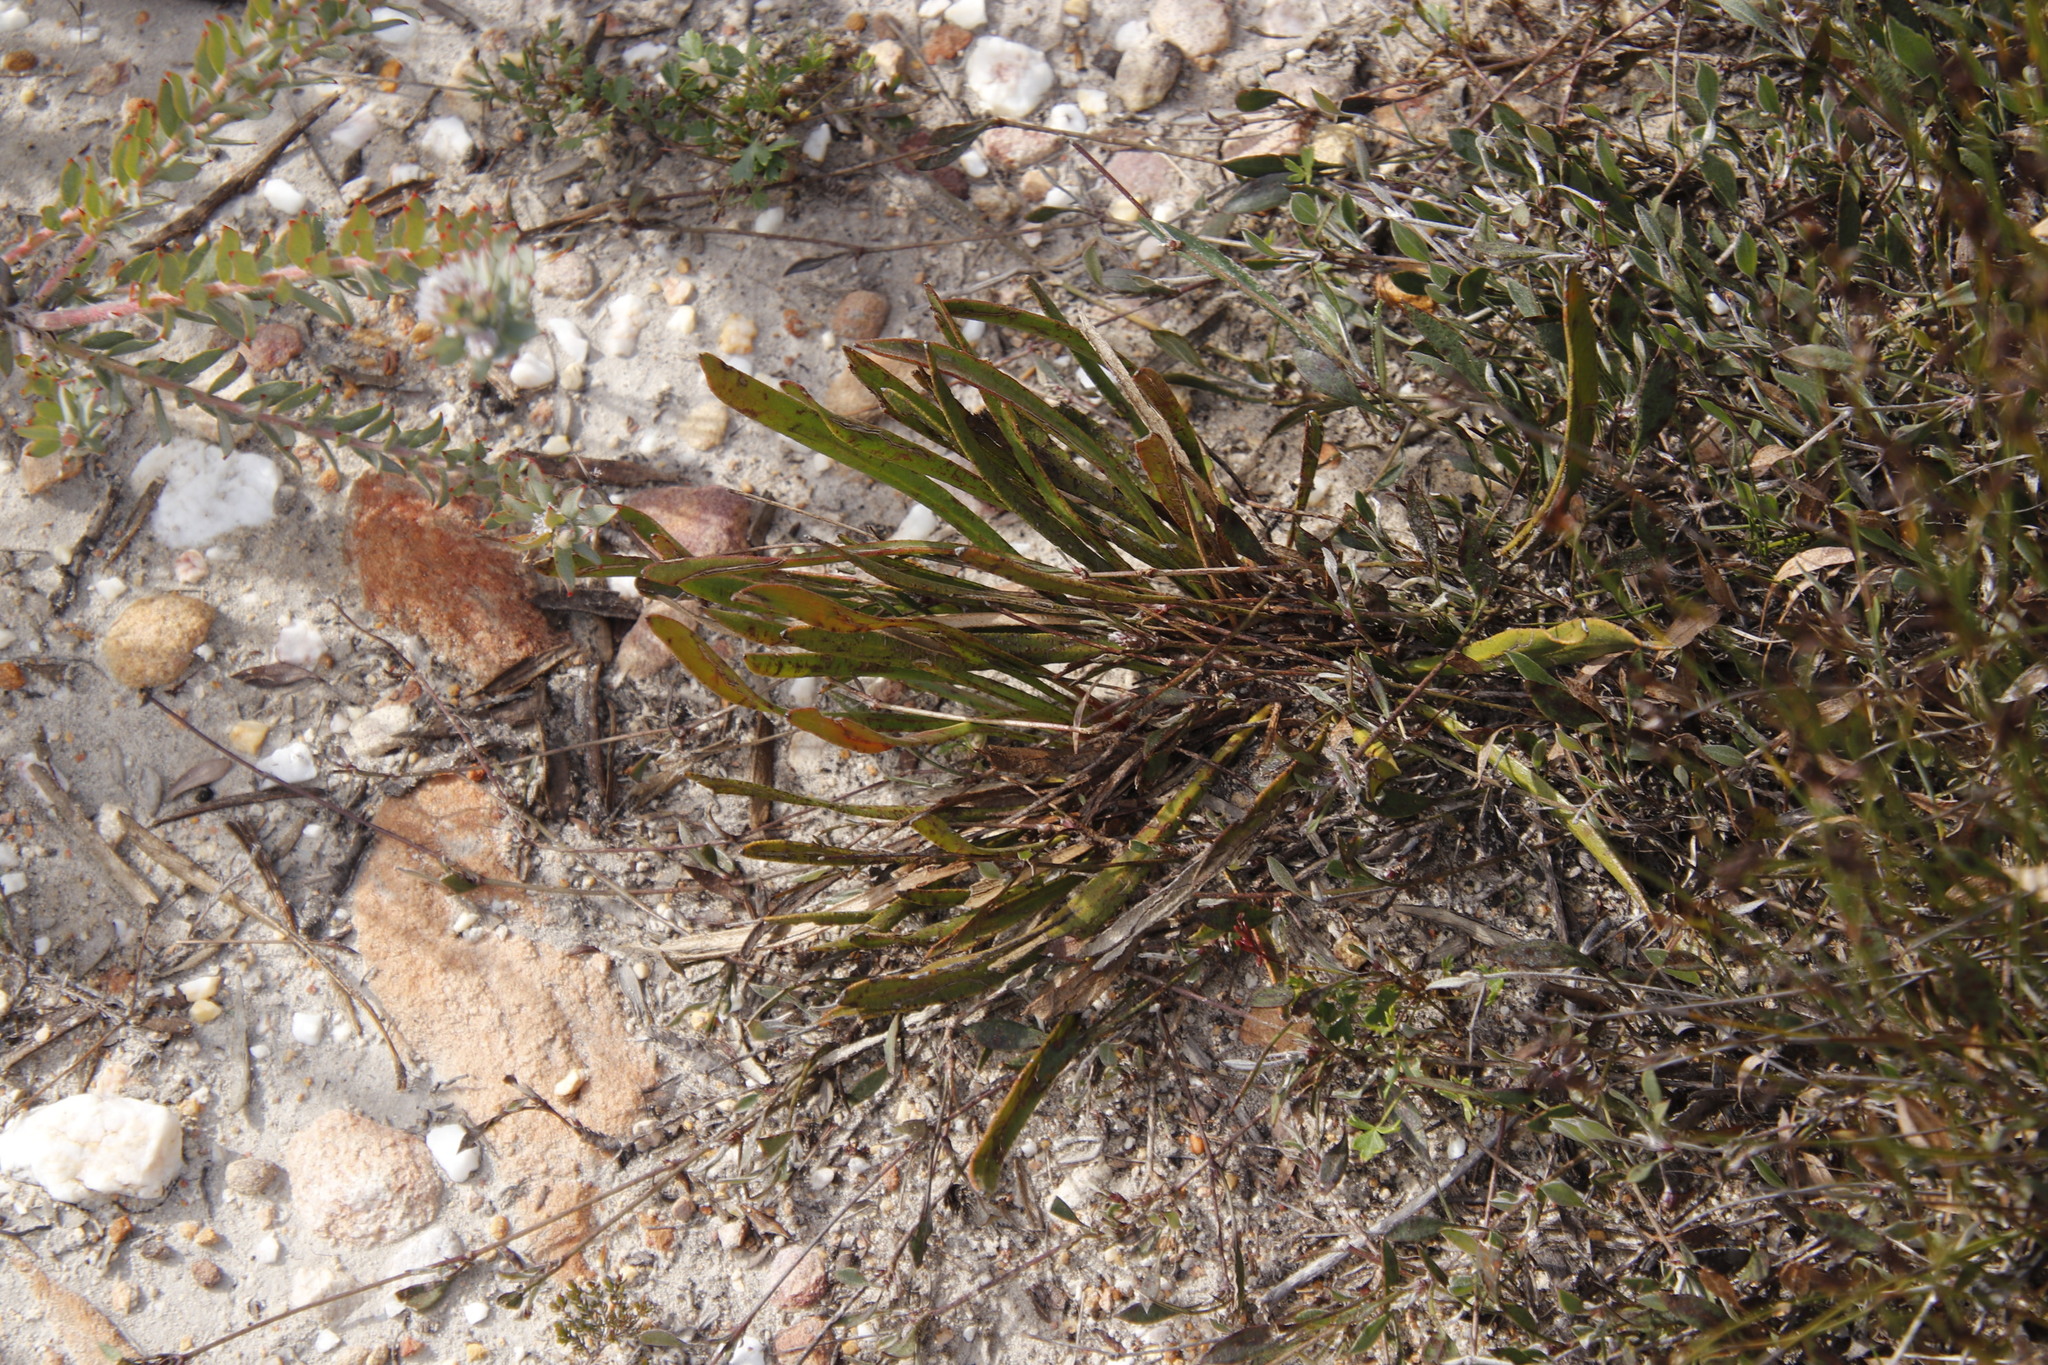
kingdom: Plantae
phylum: Tracheophyta
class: Magnoliopsida
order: Proteales
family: Proteaceae
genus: Protea
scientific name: Protea scabra
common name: Sandpaper-leaf sugarbush
